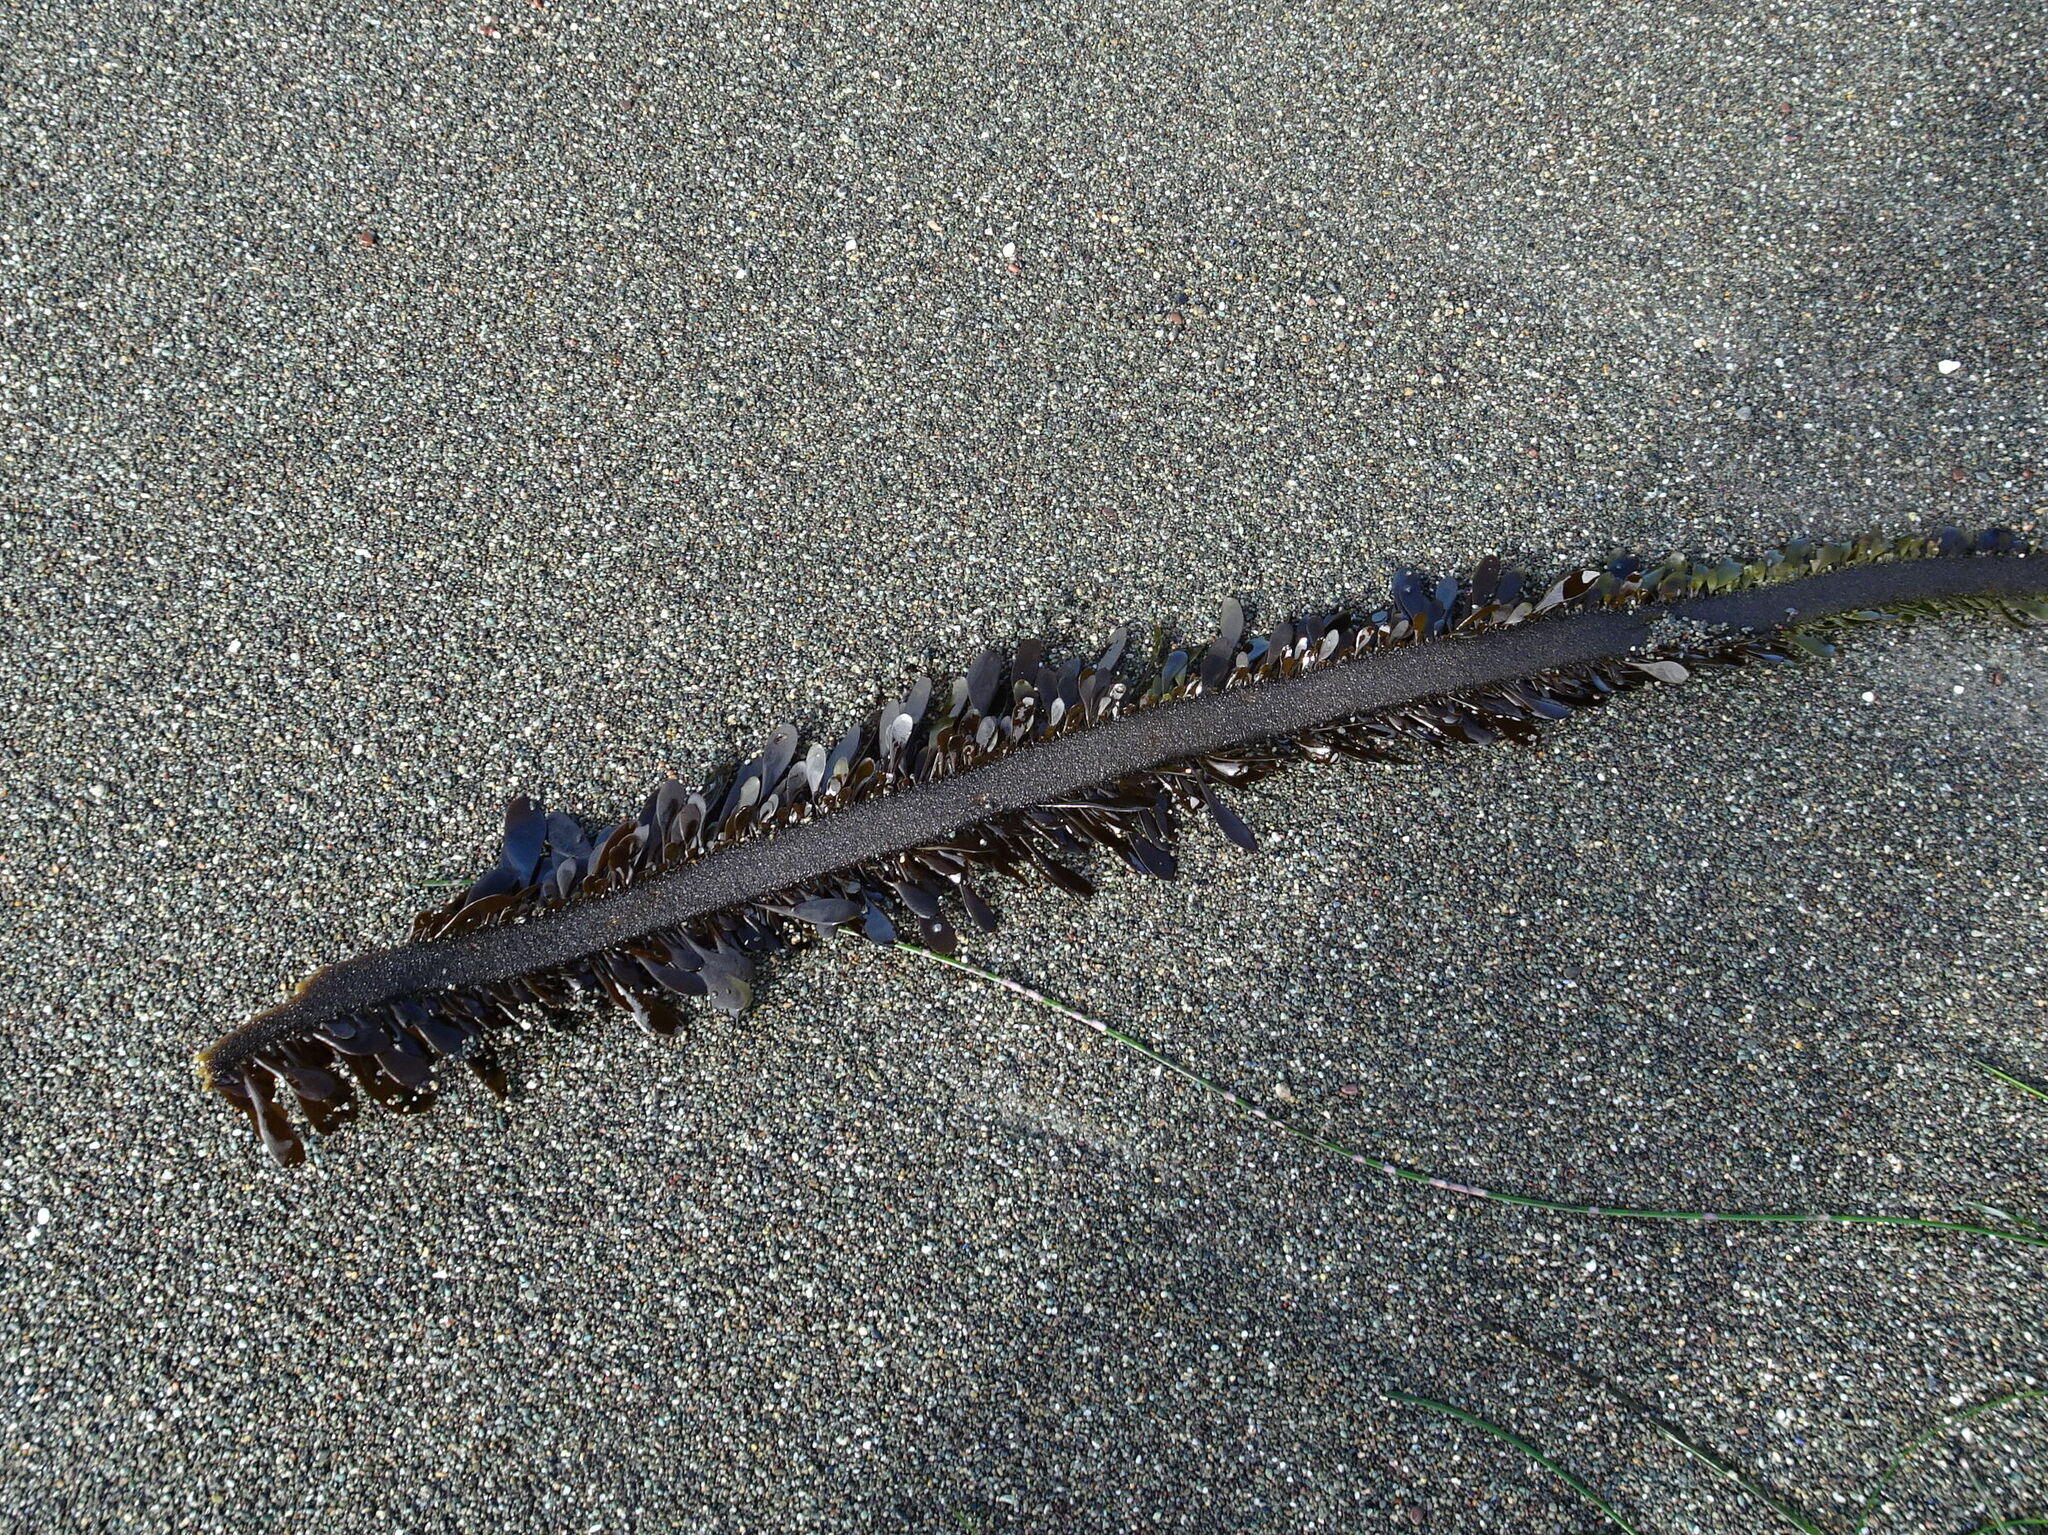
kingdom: Chromista
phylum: Ochrophyta
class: Phaeophyceae
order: Laminariales
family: Lessoniaceae
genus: Egregia
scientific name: Egregia menziesii
